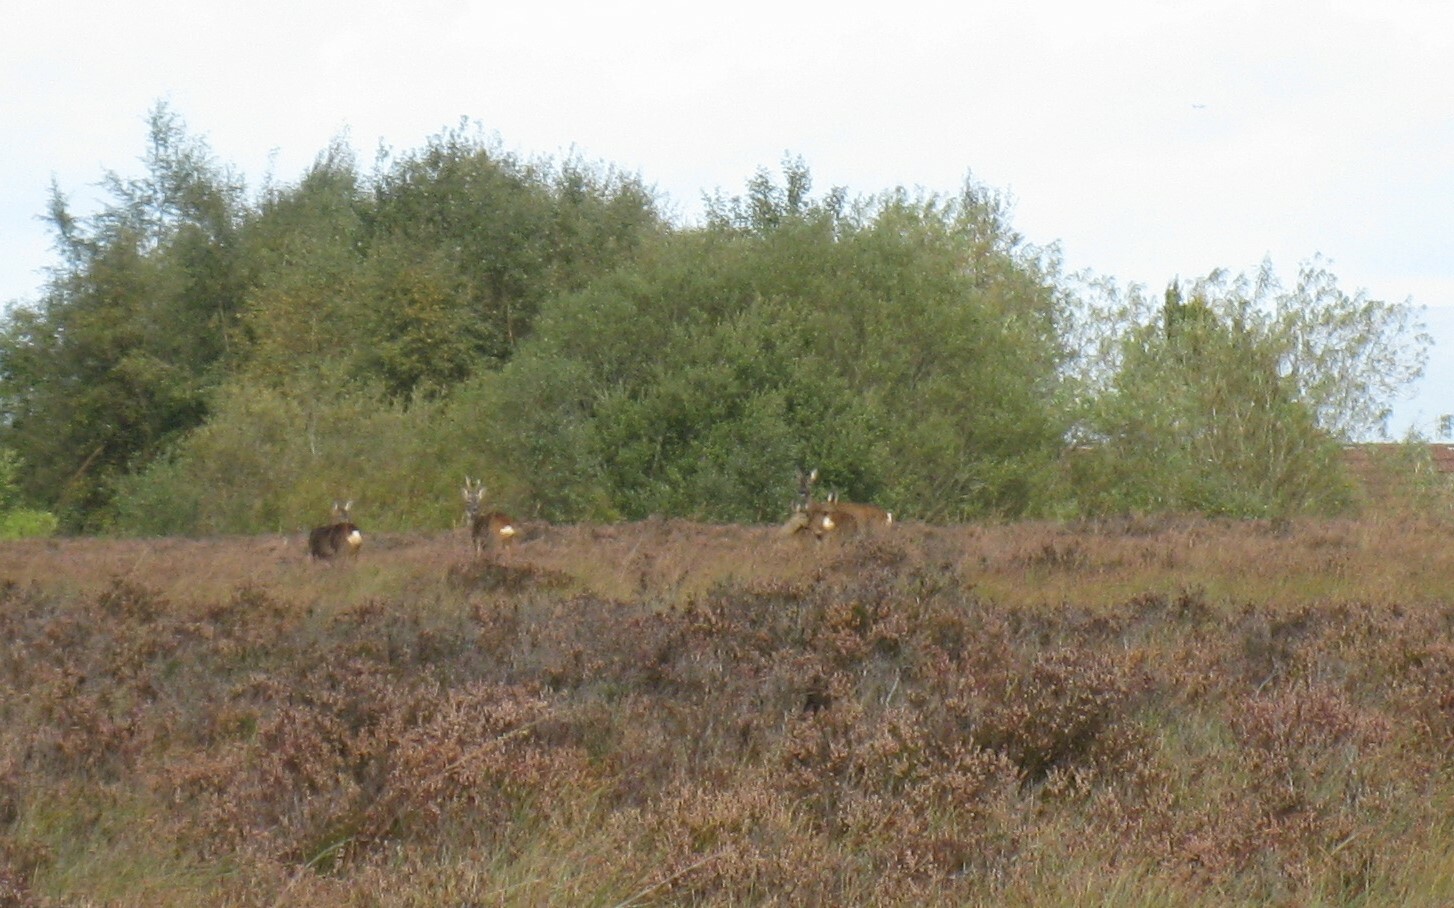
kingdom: Animalia
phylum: Chordata
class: Mammalia
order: Artiodactyla
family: Cervidae
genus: Capreolus
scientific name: Capreolus capreolus
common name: Western roe deer
